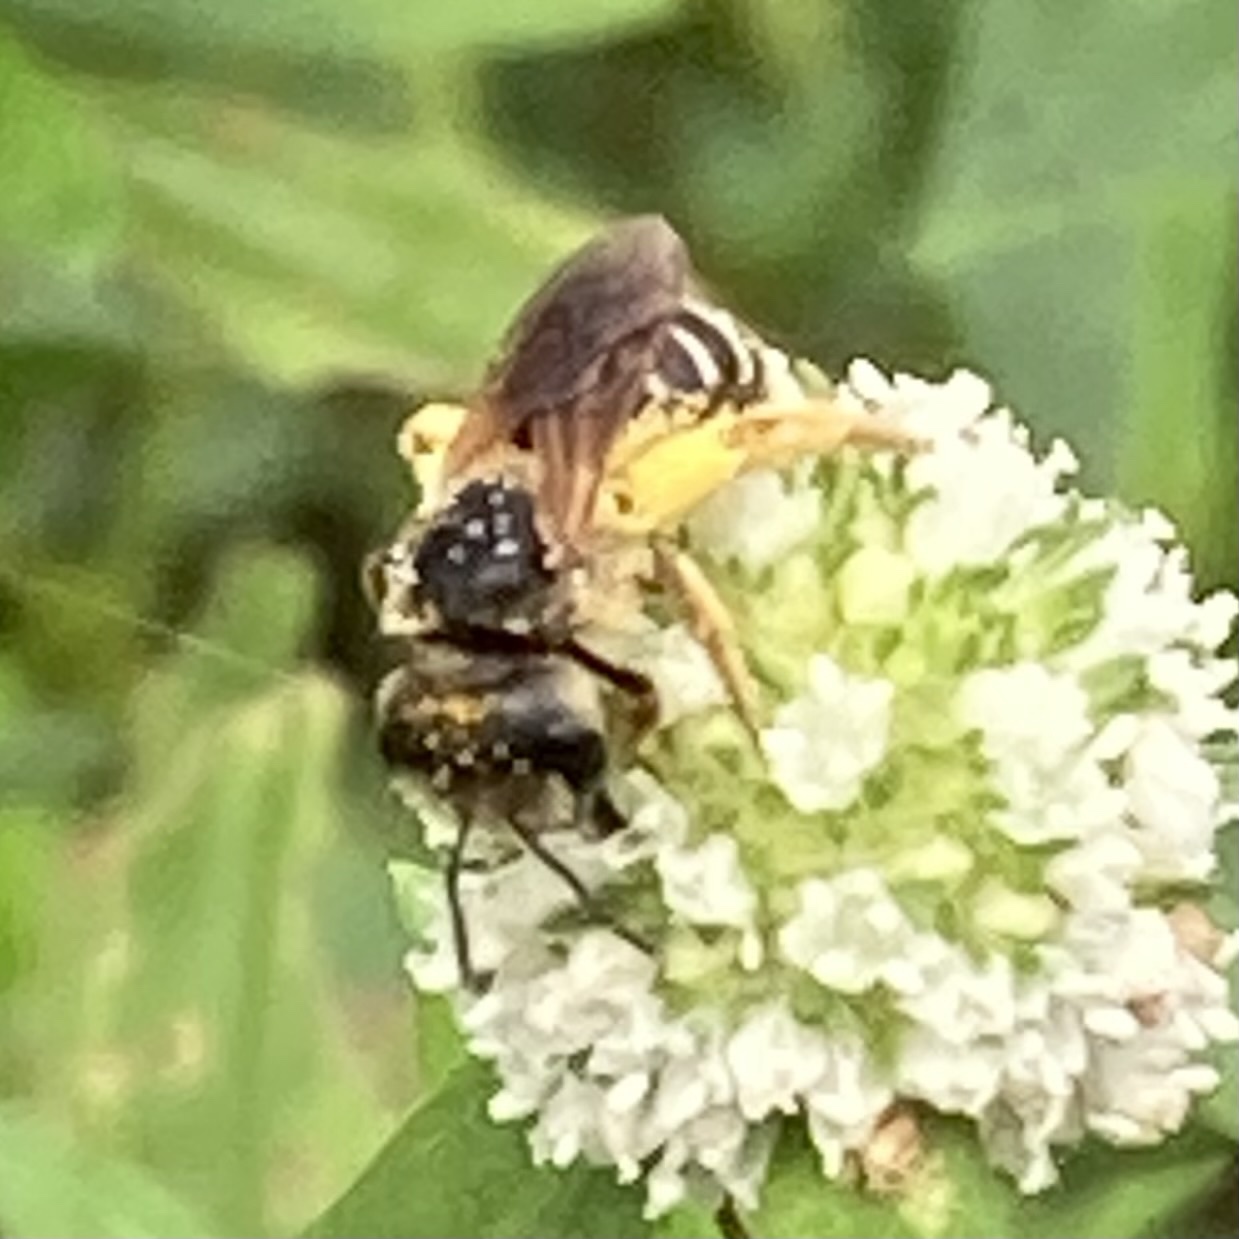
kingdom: Animalia
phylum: Arthropoda
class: Insecta
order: Hymenoptera
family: Halictidae
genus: Halictus
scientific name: Halictus poeyi
